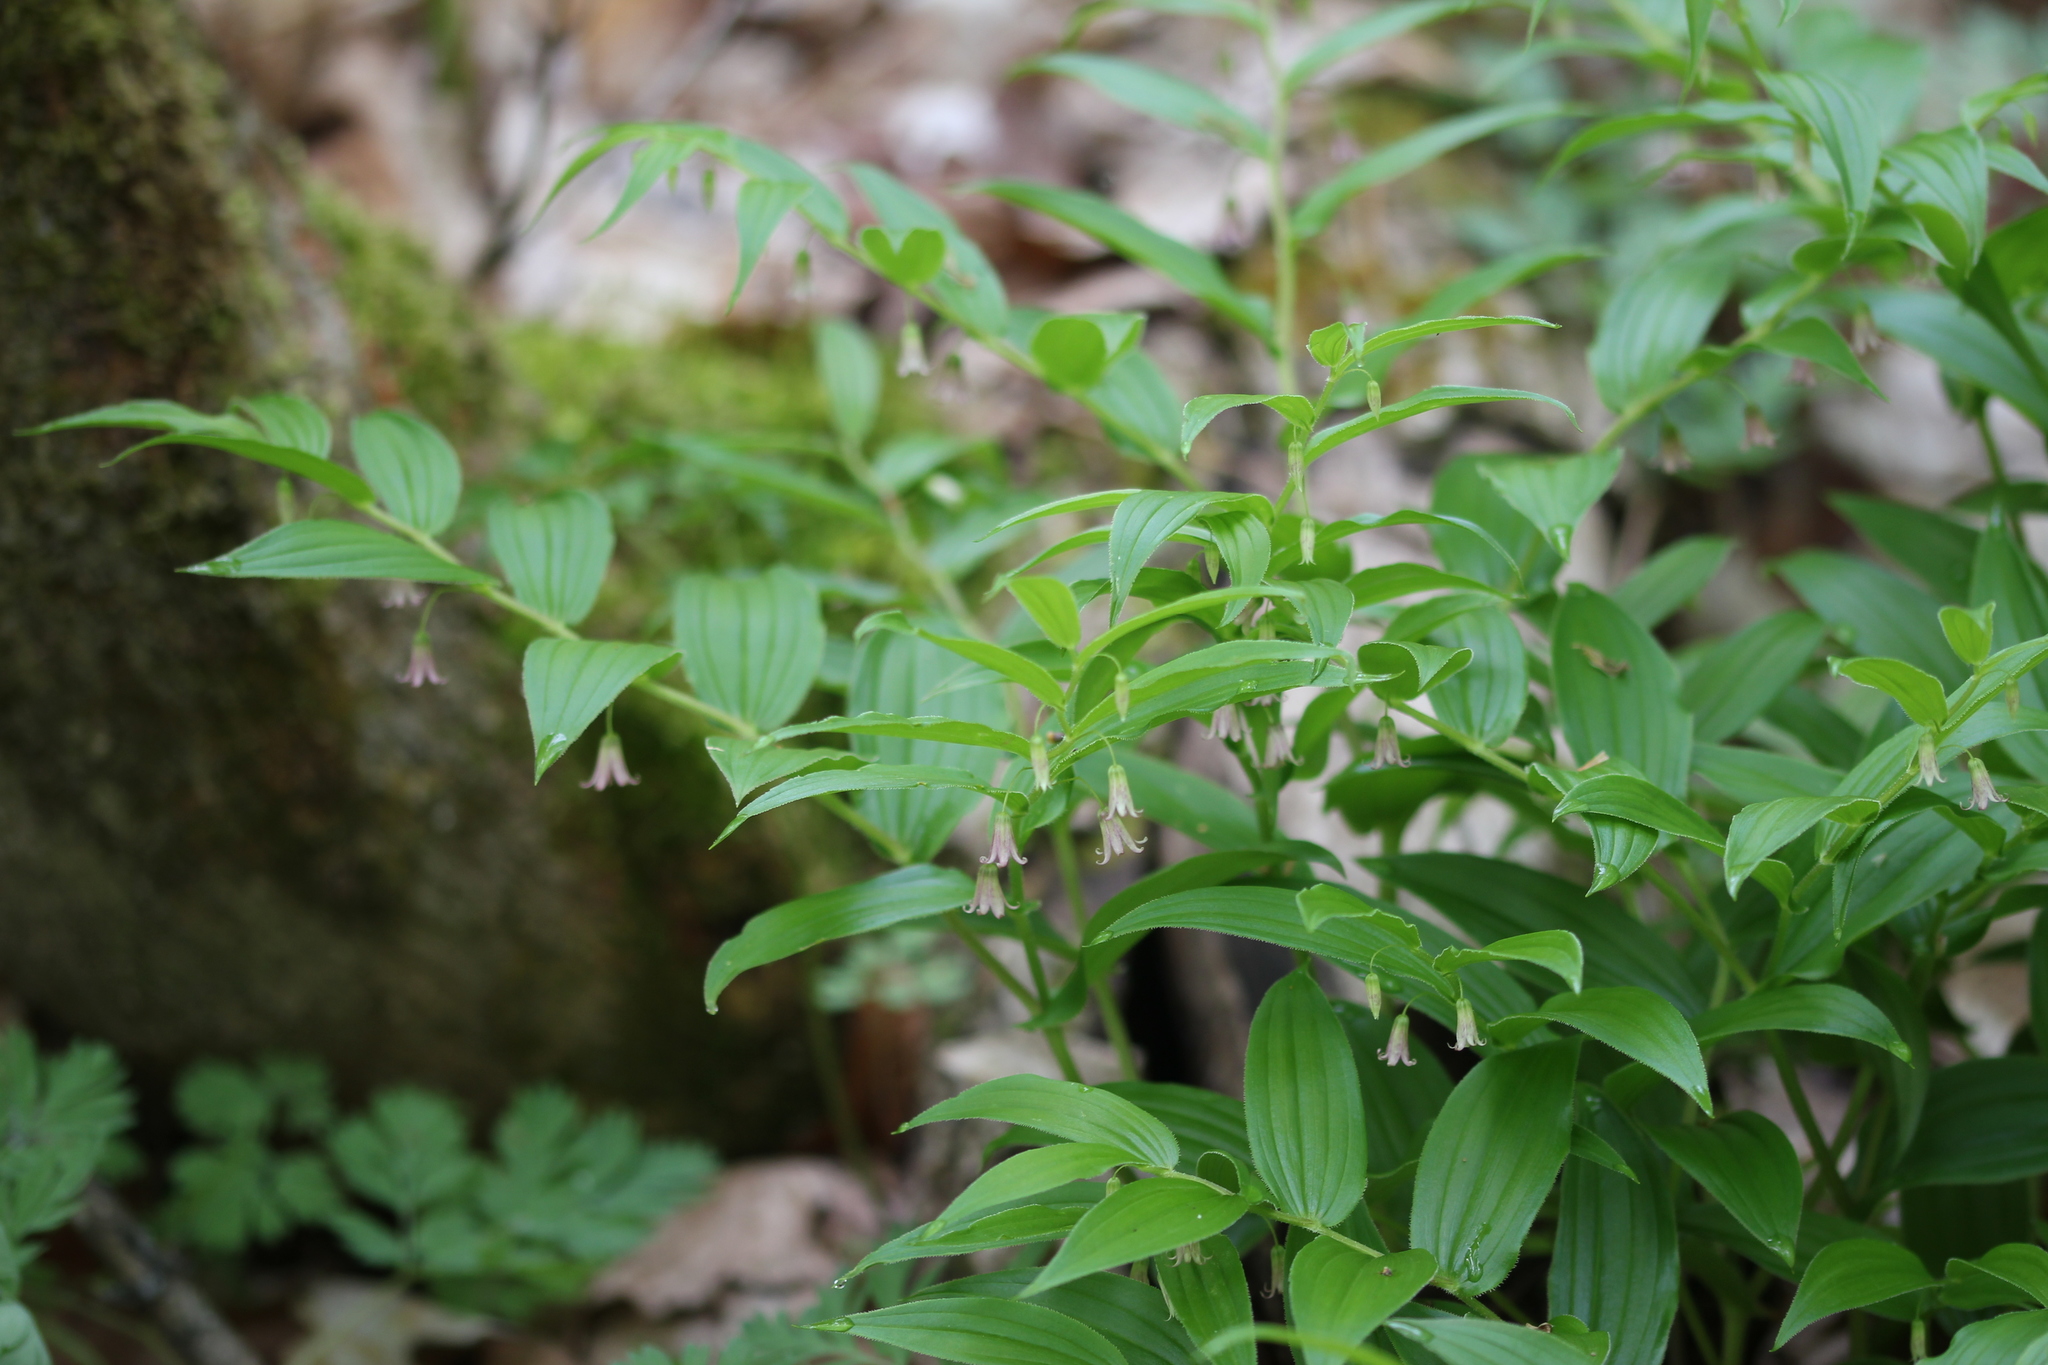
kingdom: Plantae
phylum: Tracheophyta
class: Liliopsida
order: Liliales
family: Liliaceae
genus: Streptopus
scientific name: Streptopus lanceolatus
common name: Rose mandarin
